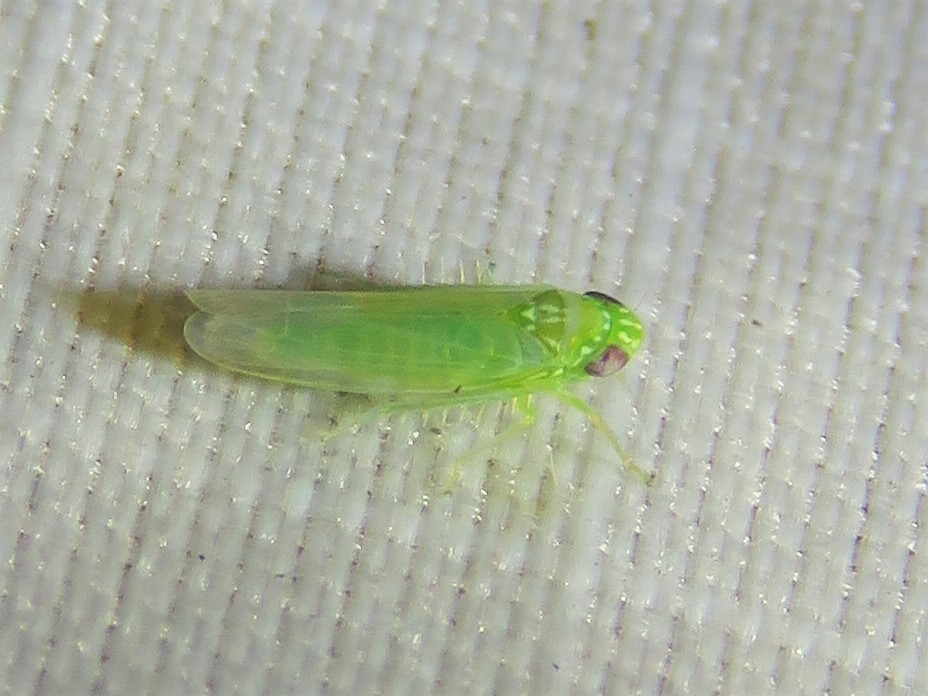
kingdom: Animalia
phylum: Arthropoda
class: Insecta
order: Hemiptera
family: Cicadellidae
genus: Empoasca
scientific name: Empoasca fabae
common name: Potato leafhopper
